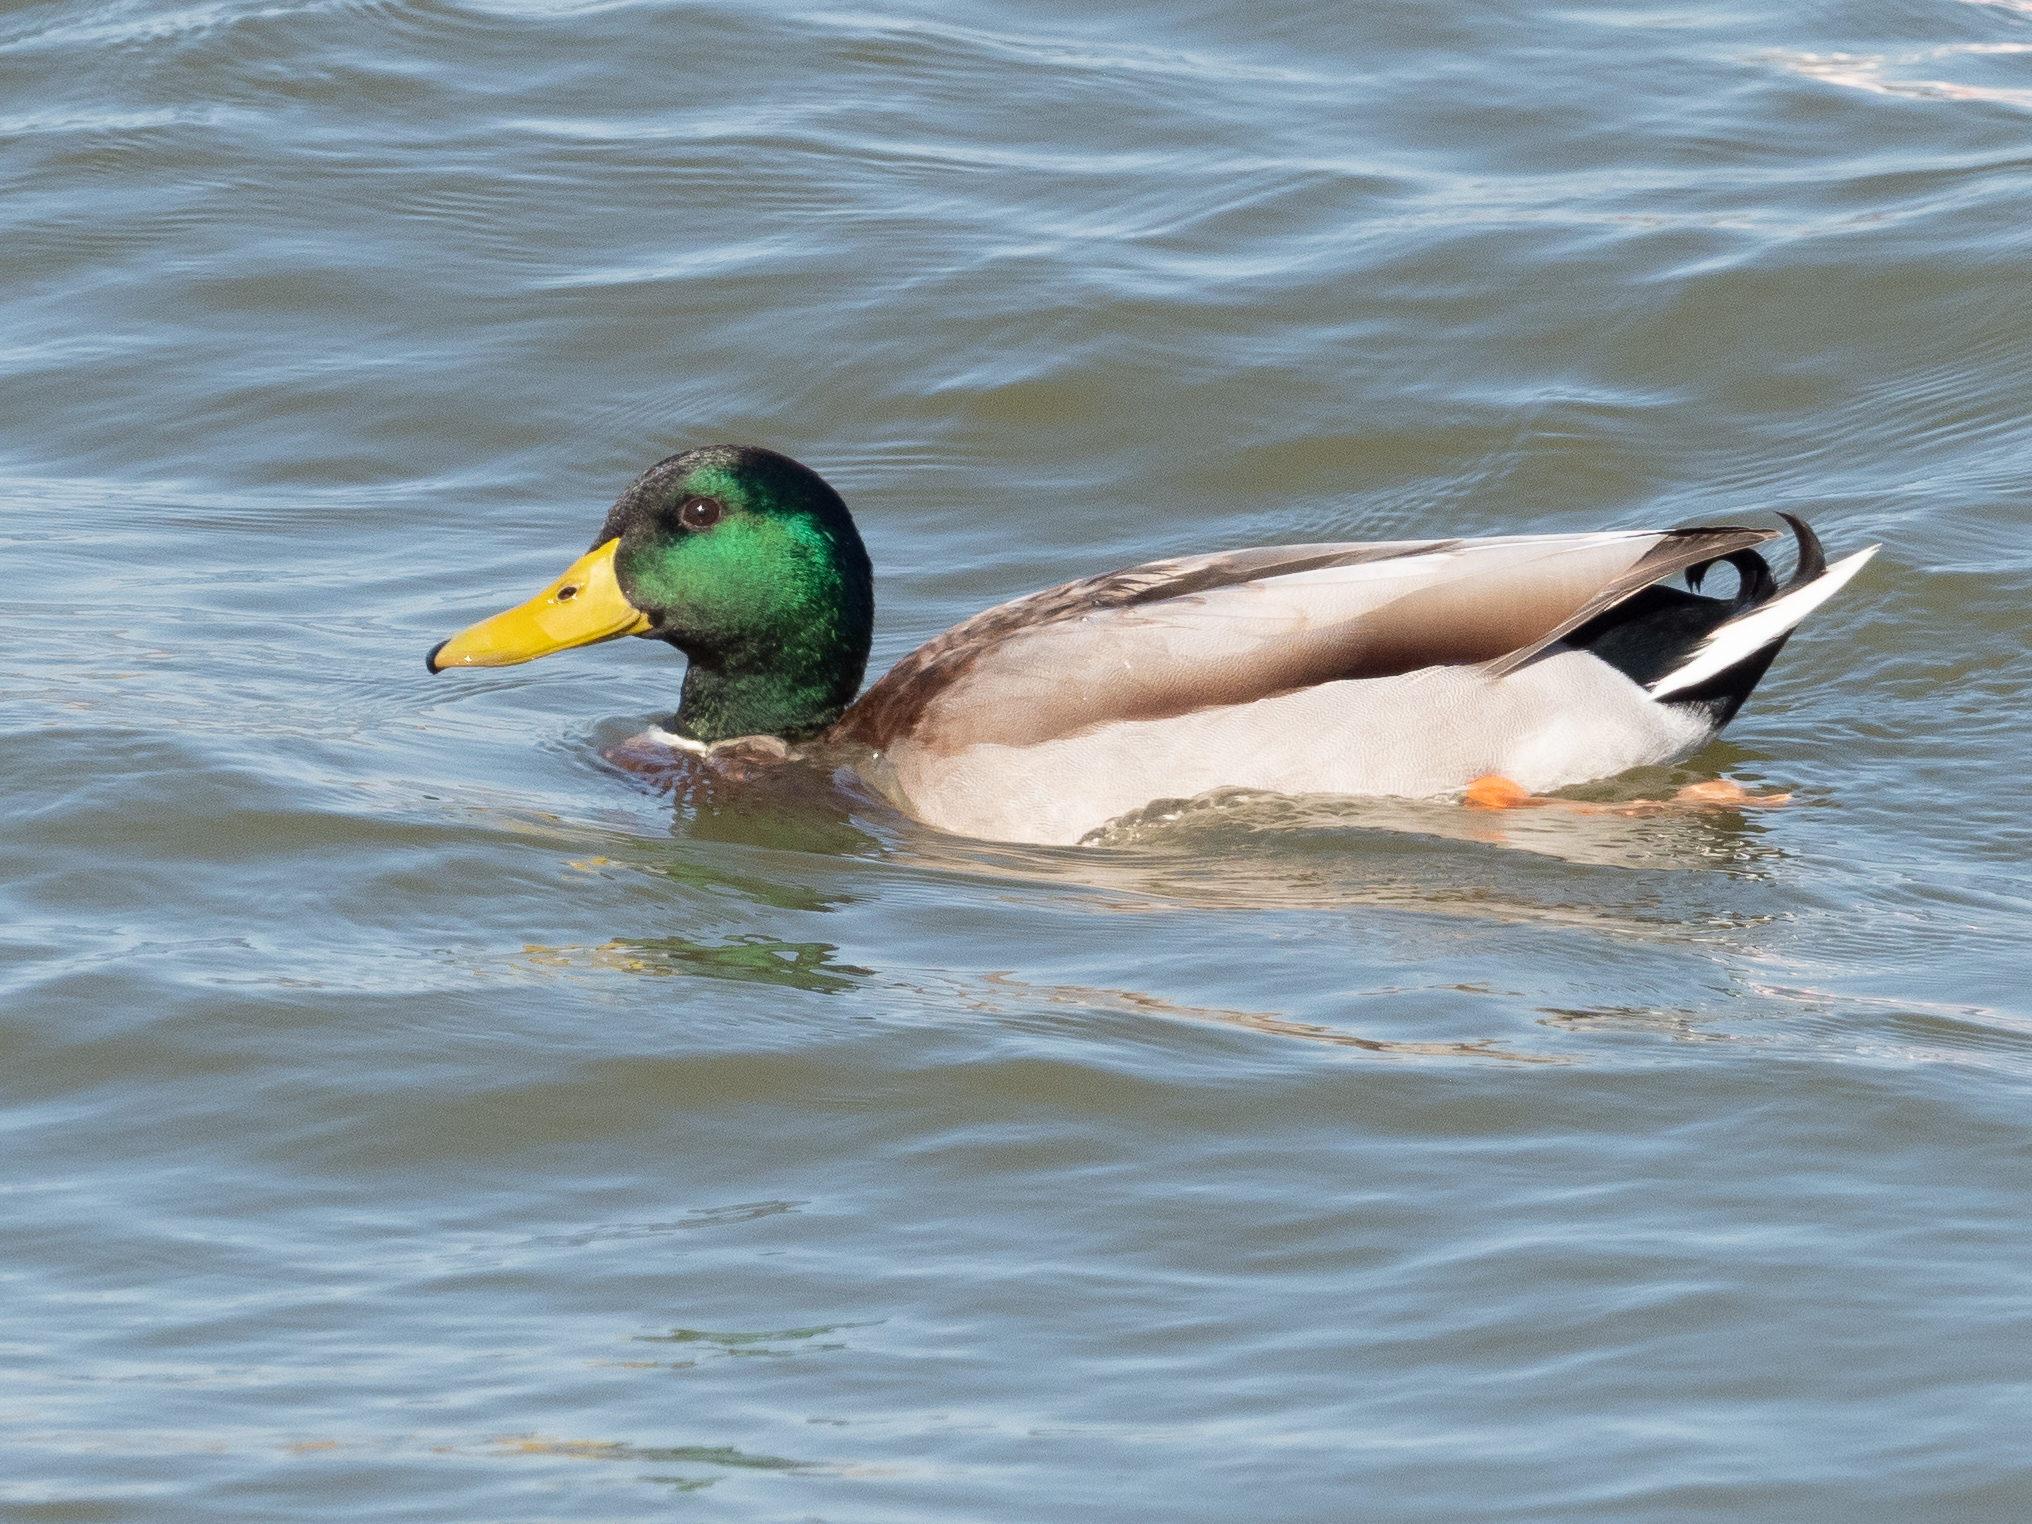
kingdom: Animalia
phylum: Chordata
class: Aves
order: Anseriformes
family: Anatidae
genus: Anas
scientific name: Anas platyrhynchos
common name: Mallard
